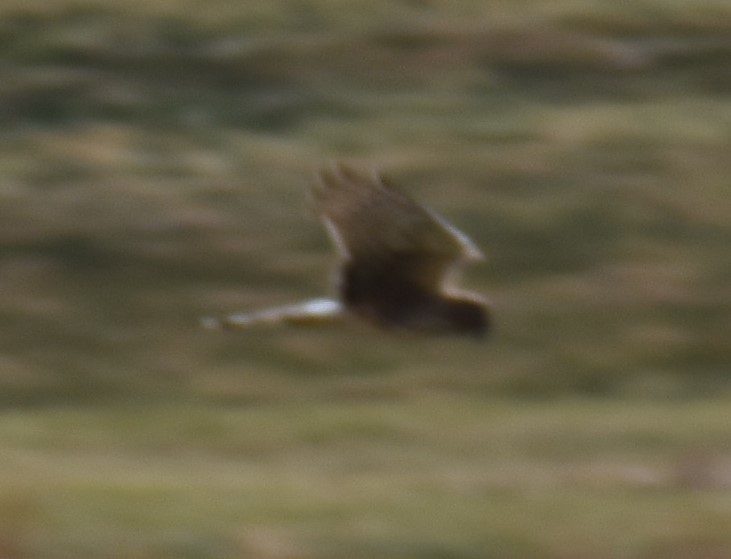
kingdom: Animalia
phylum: Chordata
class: Aves
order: Accipitriformes
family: Accipitridae
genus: Circus
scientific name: Circus cyaneus
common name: Hen harrier
